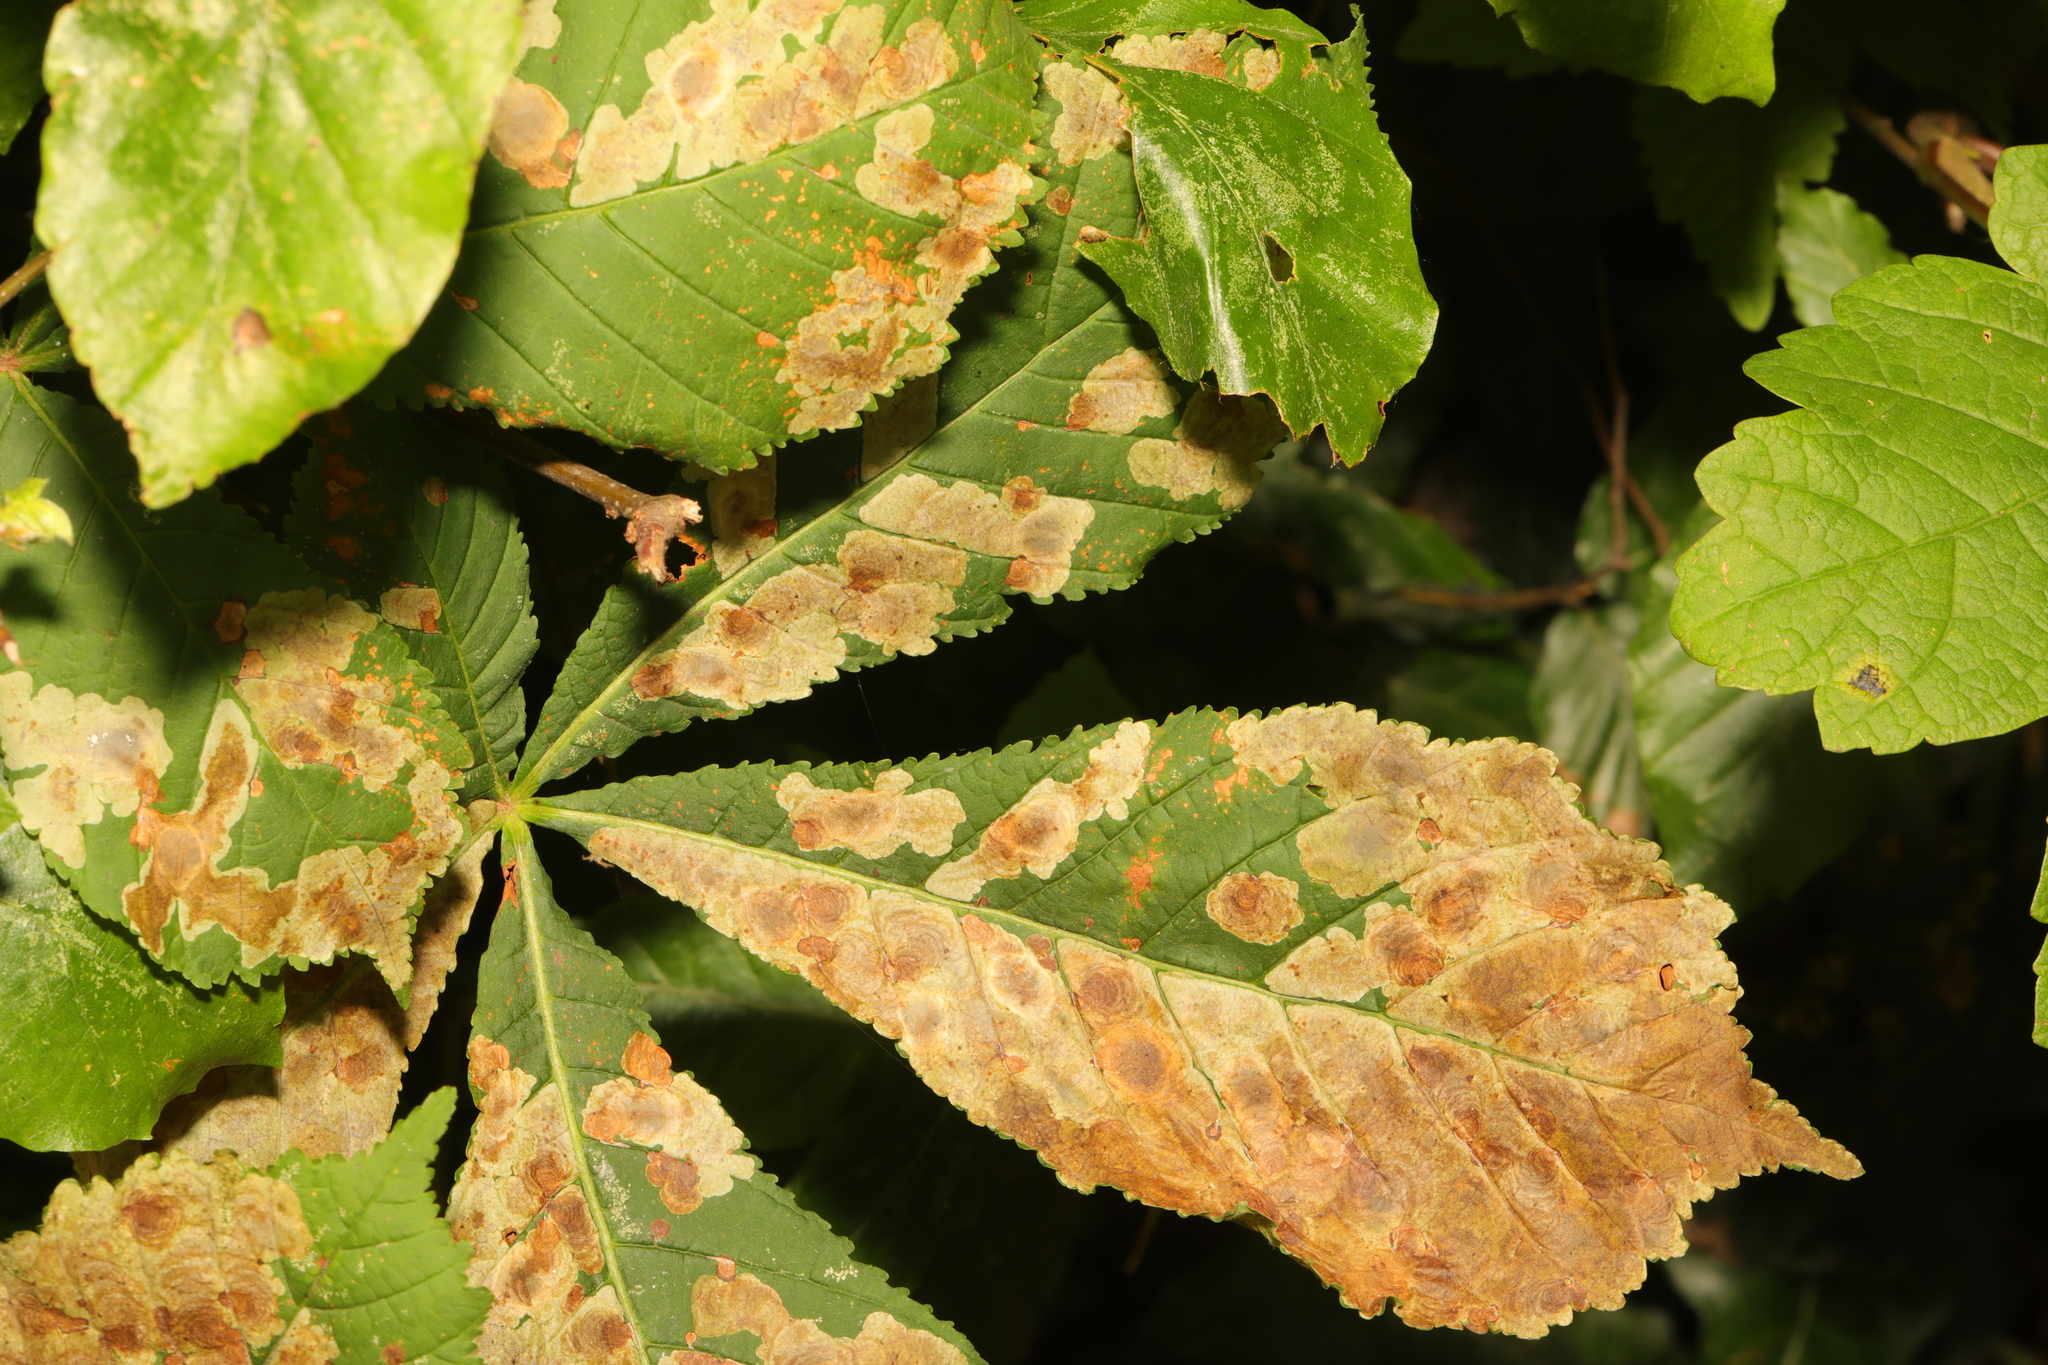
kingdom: Animalia
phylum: Arthropoda
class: Insecta
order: Lepidoptera
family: Gracillariidae
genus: Cameraria
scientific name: Cameraria ohridella
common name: Horse-chestnut leaf-miner
